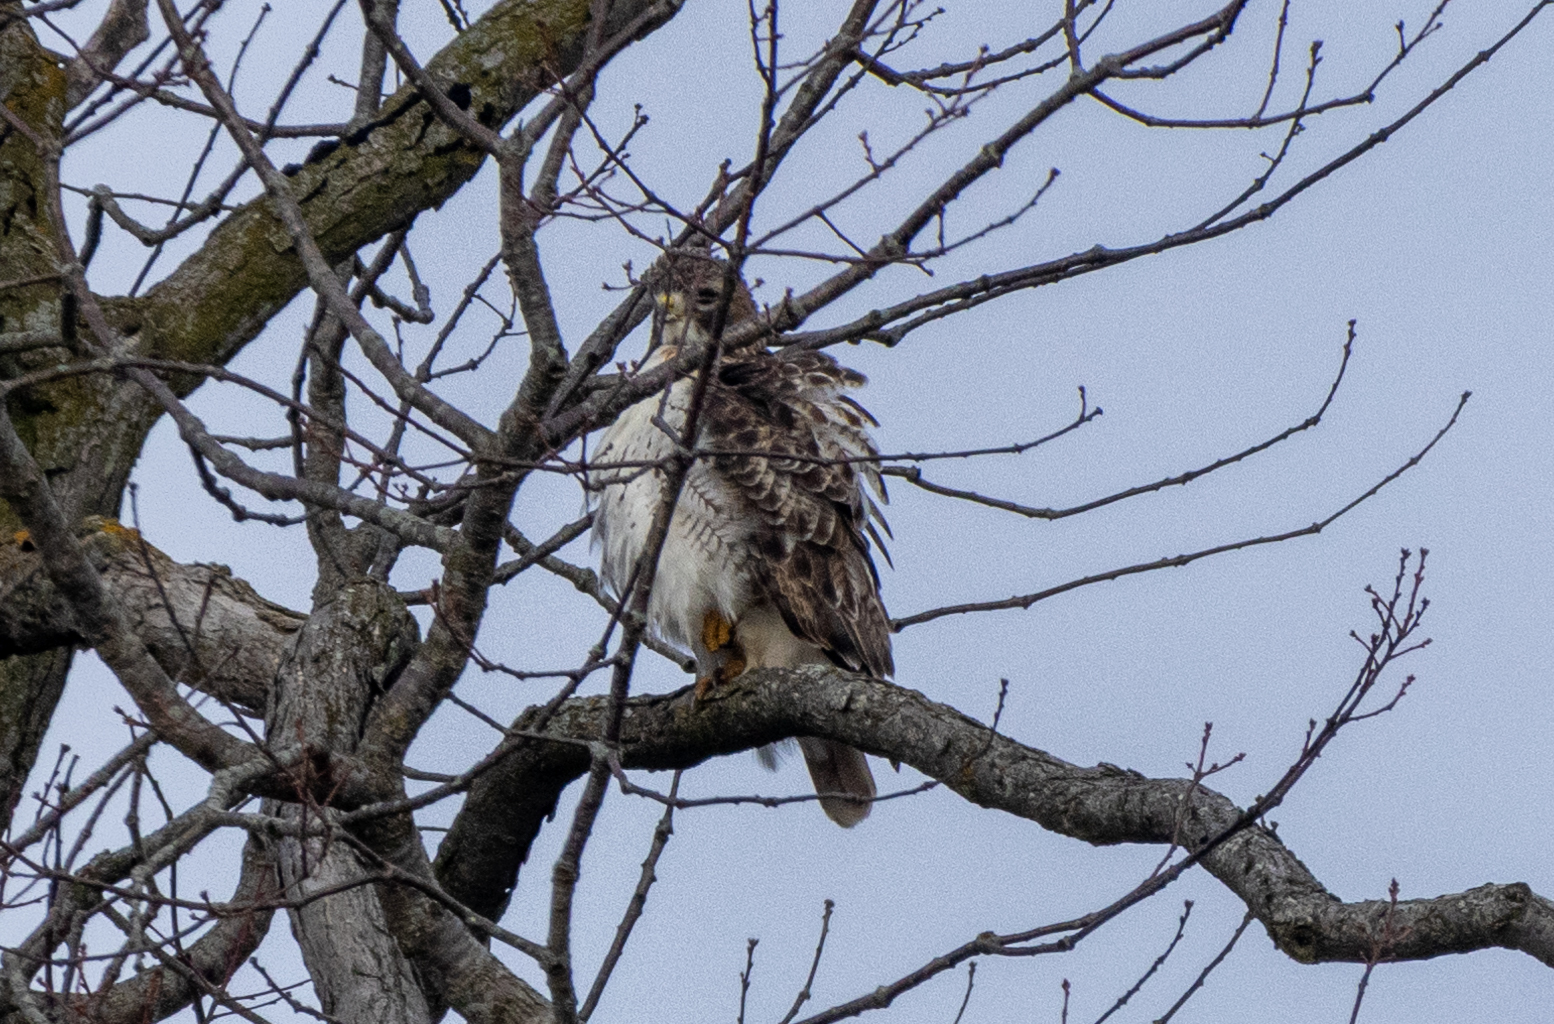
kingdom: Animalia
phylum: Chordata
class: Aves
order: Accipitriformes
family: Accipitridae
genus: Buteo
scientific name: Buteo jamaicensis
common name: Red-tailed hawk
